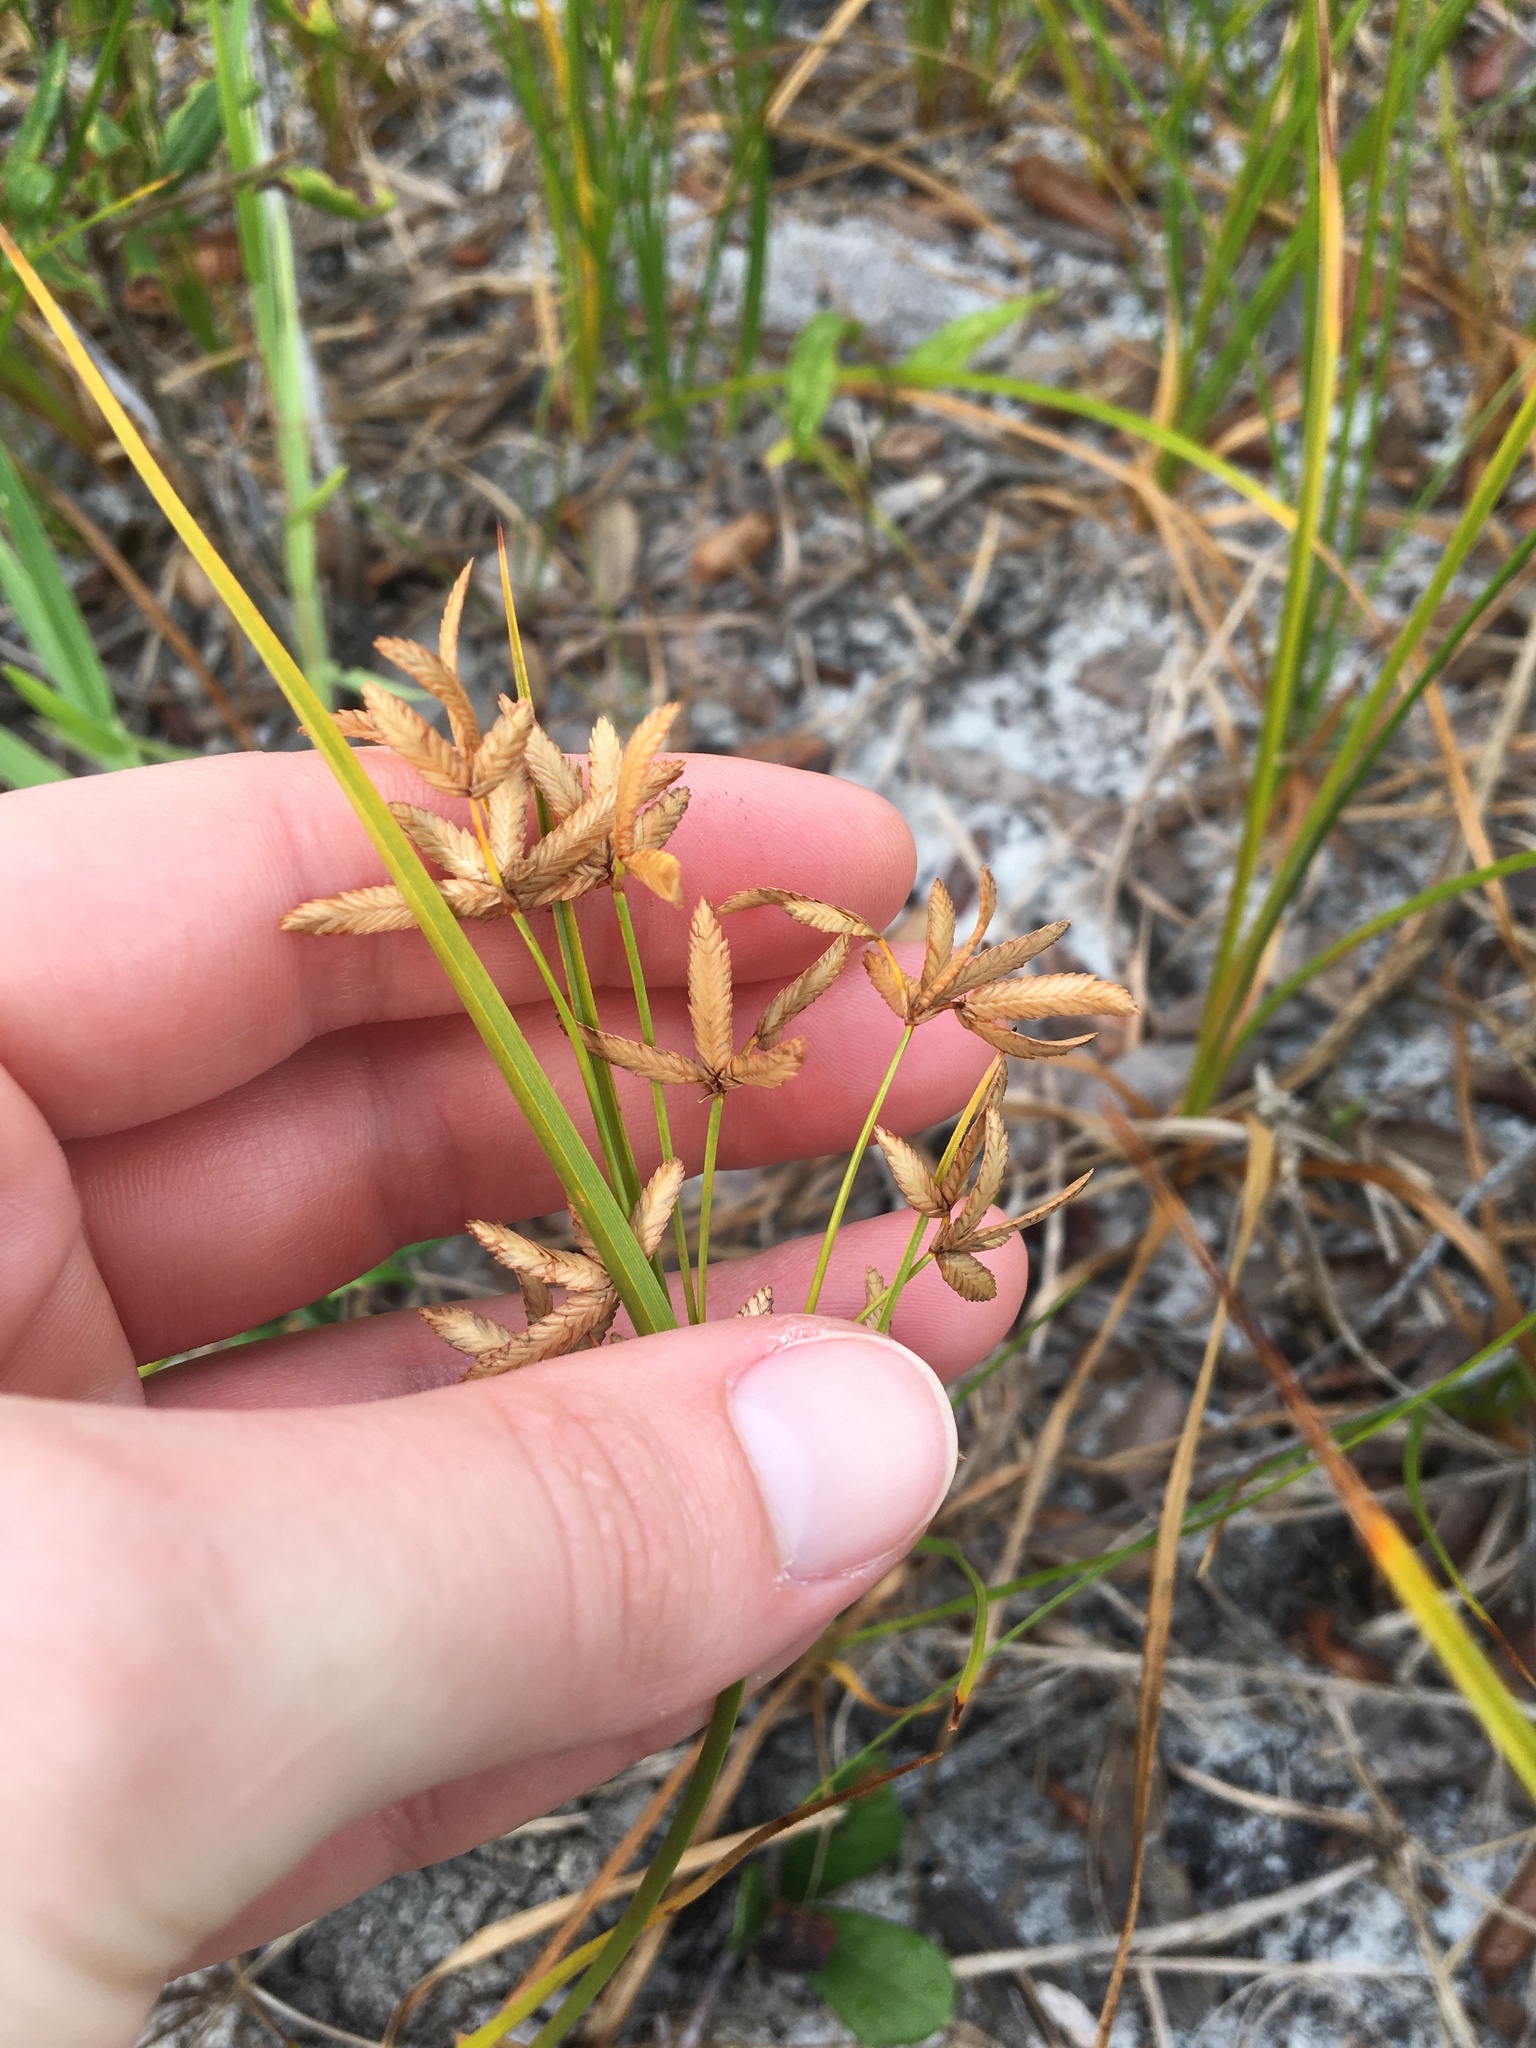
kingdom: Plantae
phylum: Tracheophyta
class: Liliopsida
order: Poales
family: Cyperaceae
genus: Cyperus
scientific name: Cyperus lecontei
